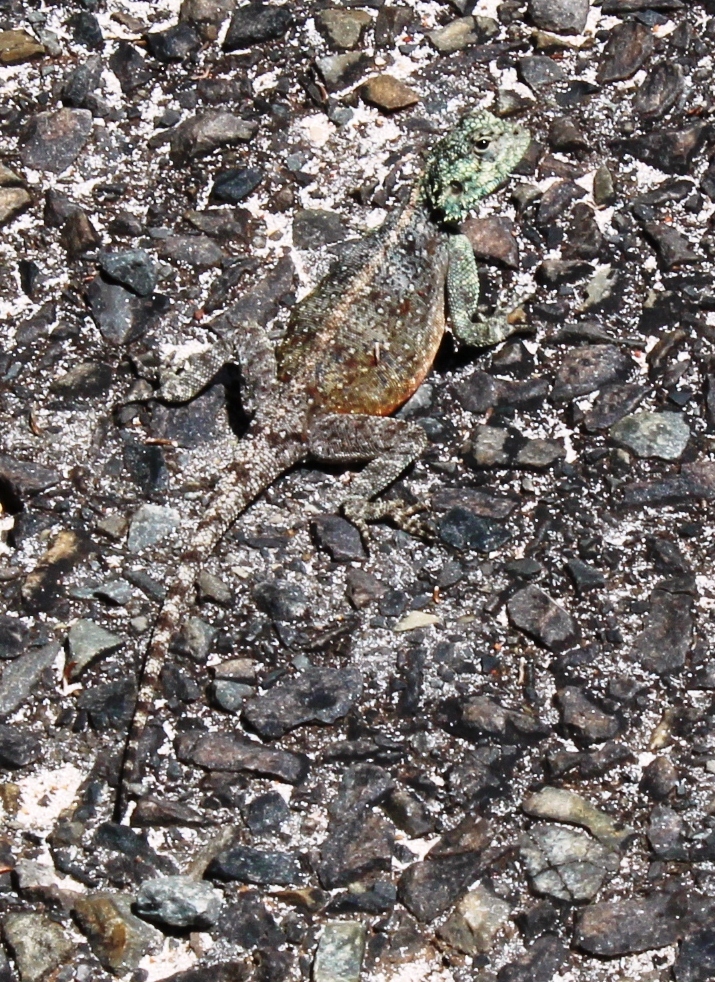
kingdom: Animalia
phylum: Chordata
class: Squamata
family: Agamidae
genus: Agama
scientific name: Agama atra
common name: Southern african rock agama
